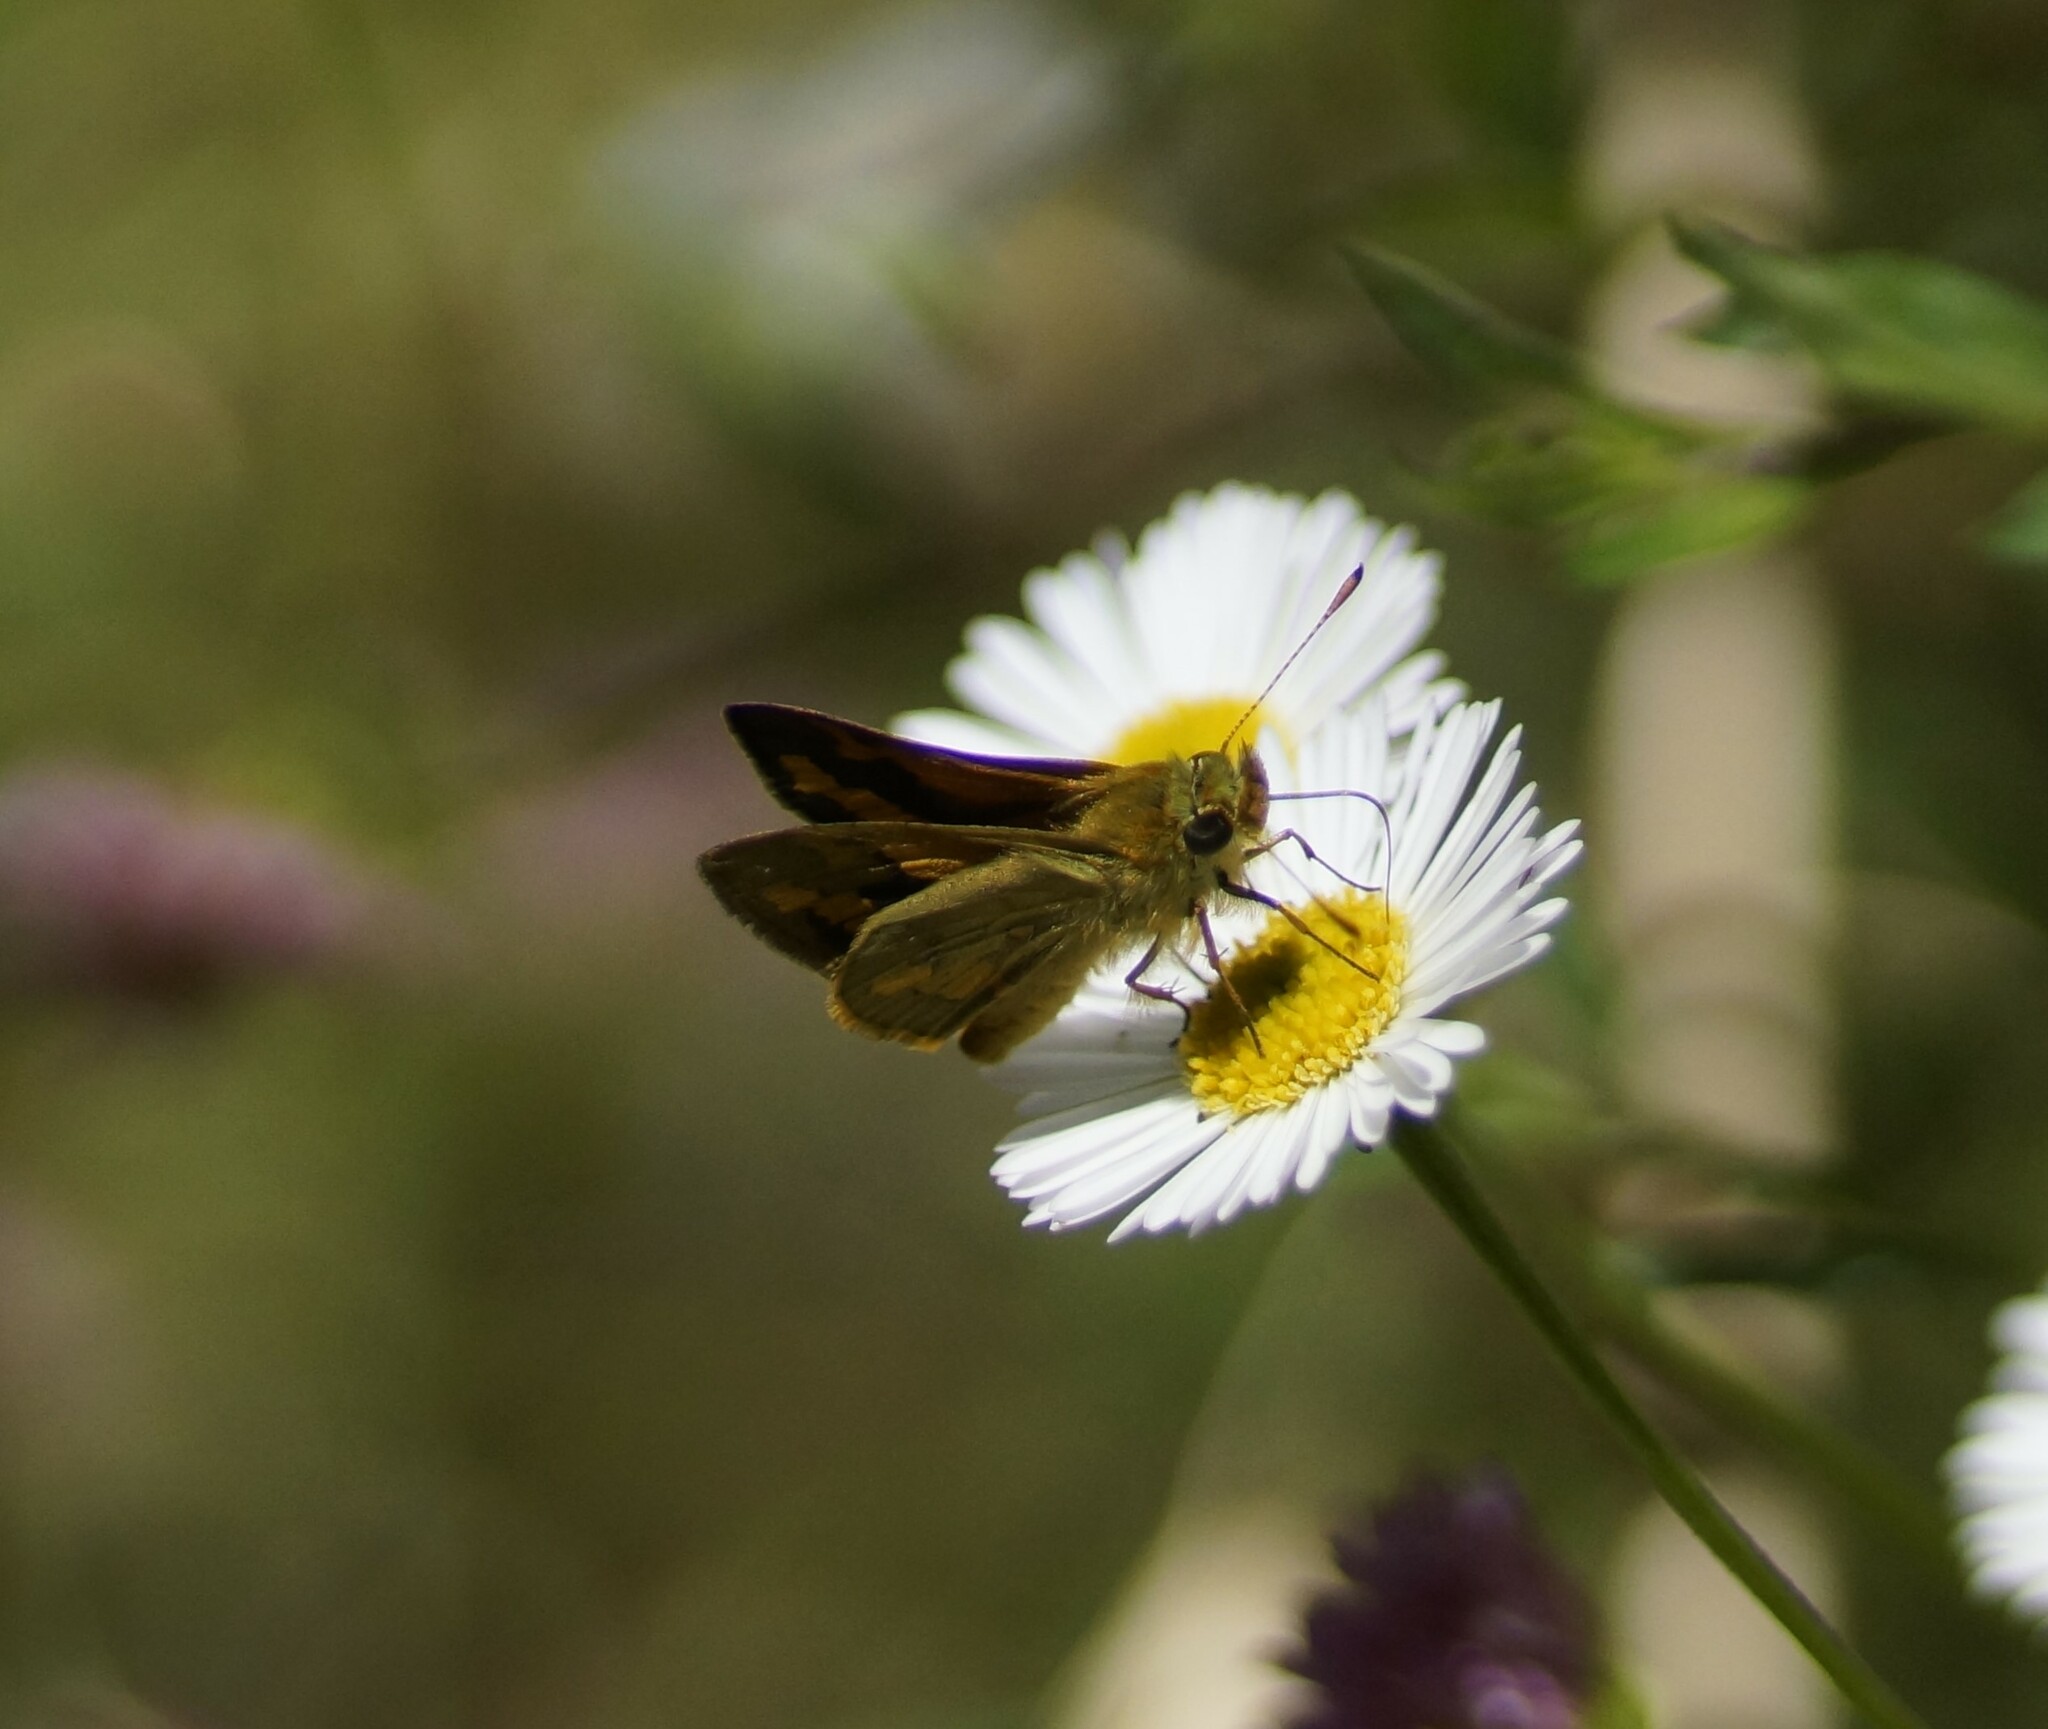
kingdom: Animalia
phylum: Arthropoda
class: Insecta
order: Lepidoptera
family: Hesperiidae
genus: Ocybadistes
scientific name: Ocybadistes walkeri
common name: Yellow-banded dart
